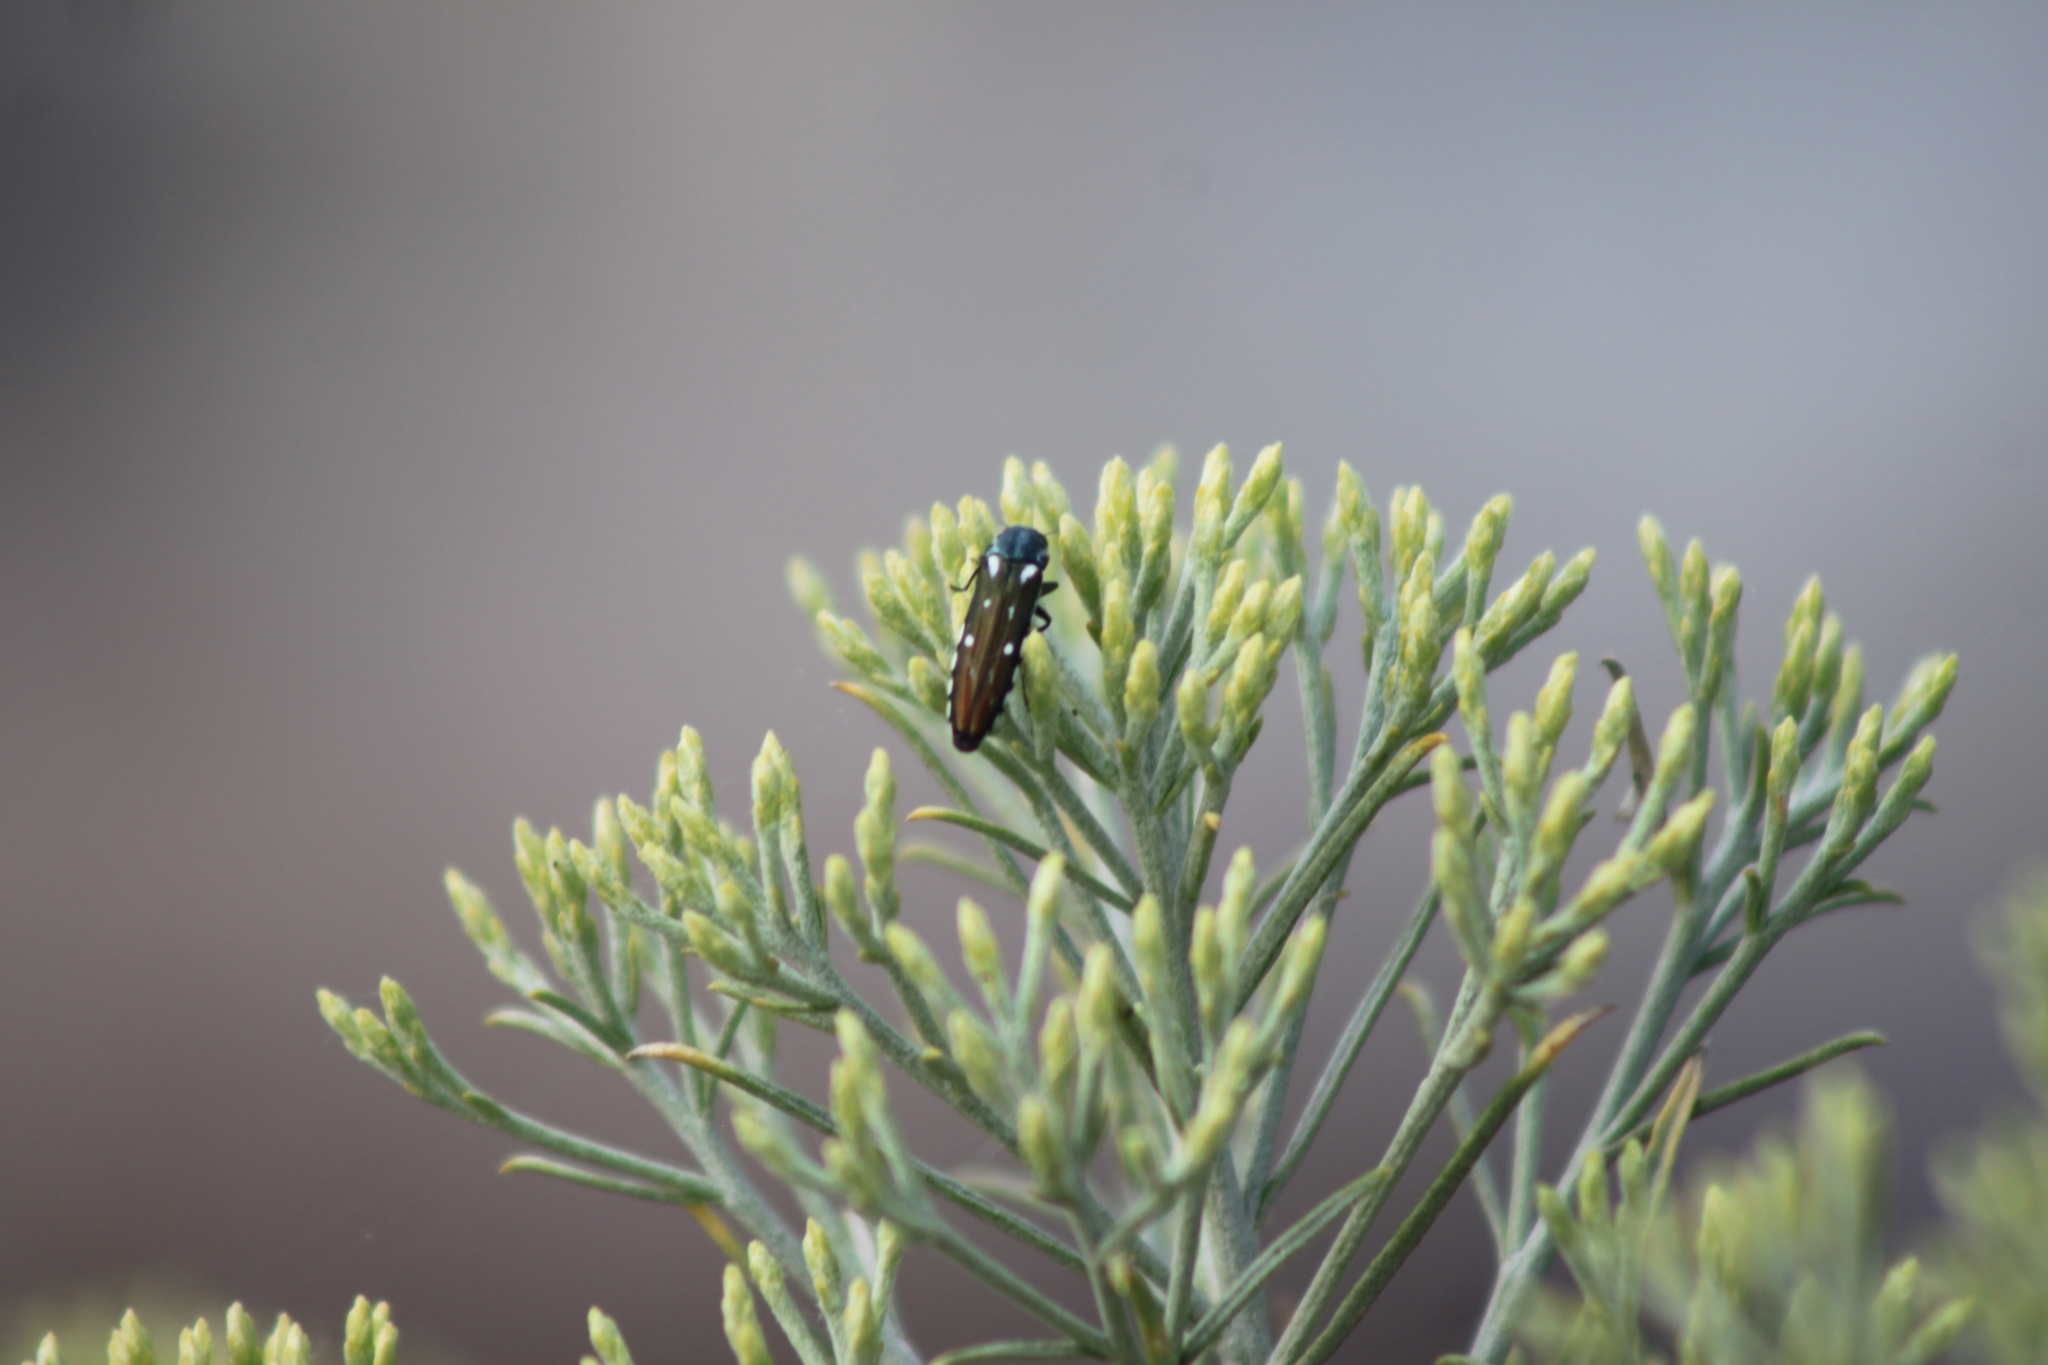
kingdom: Animalia
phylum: Arthropoda
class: Insecta
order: Coleoptera
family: Buprestidae
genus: Agrilus
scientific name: Agrilus walsinghami
